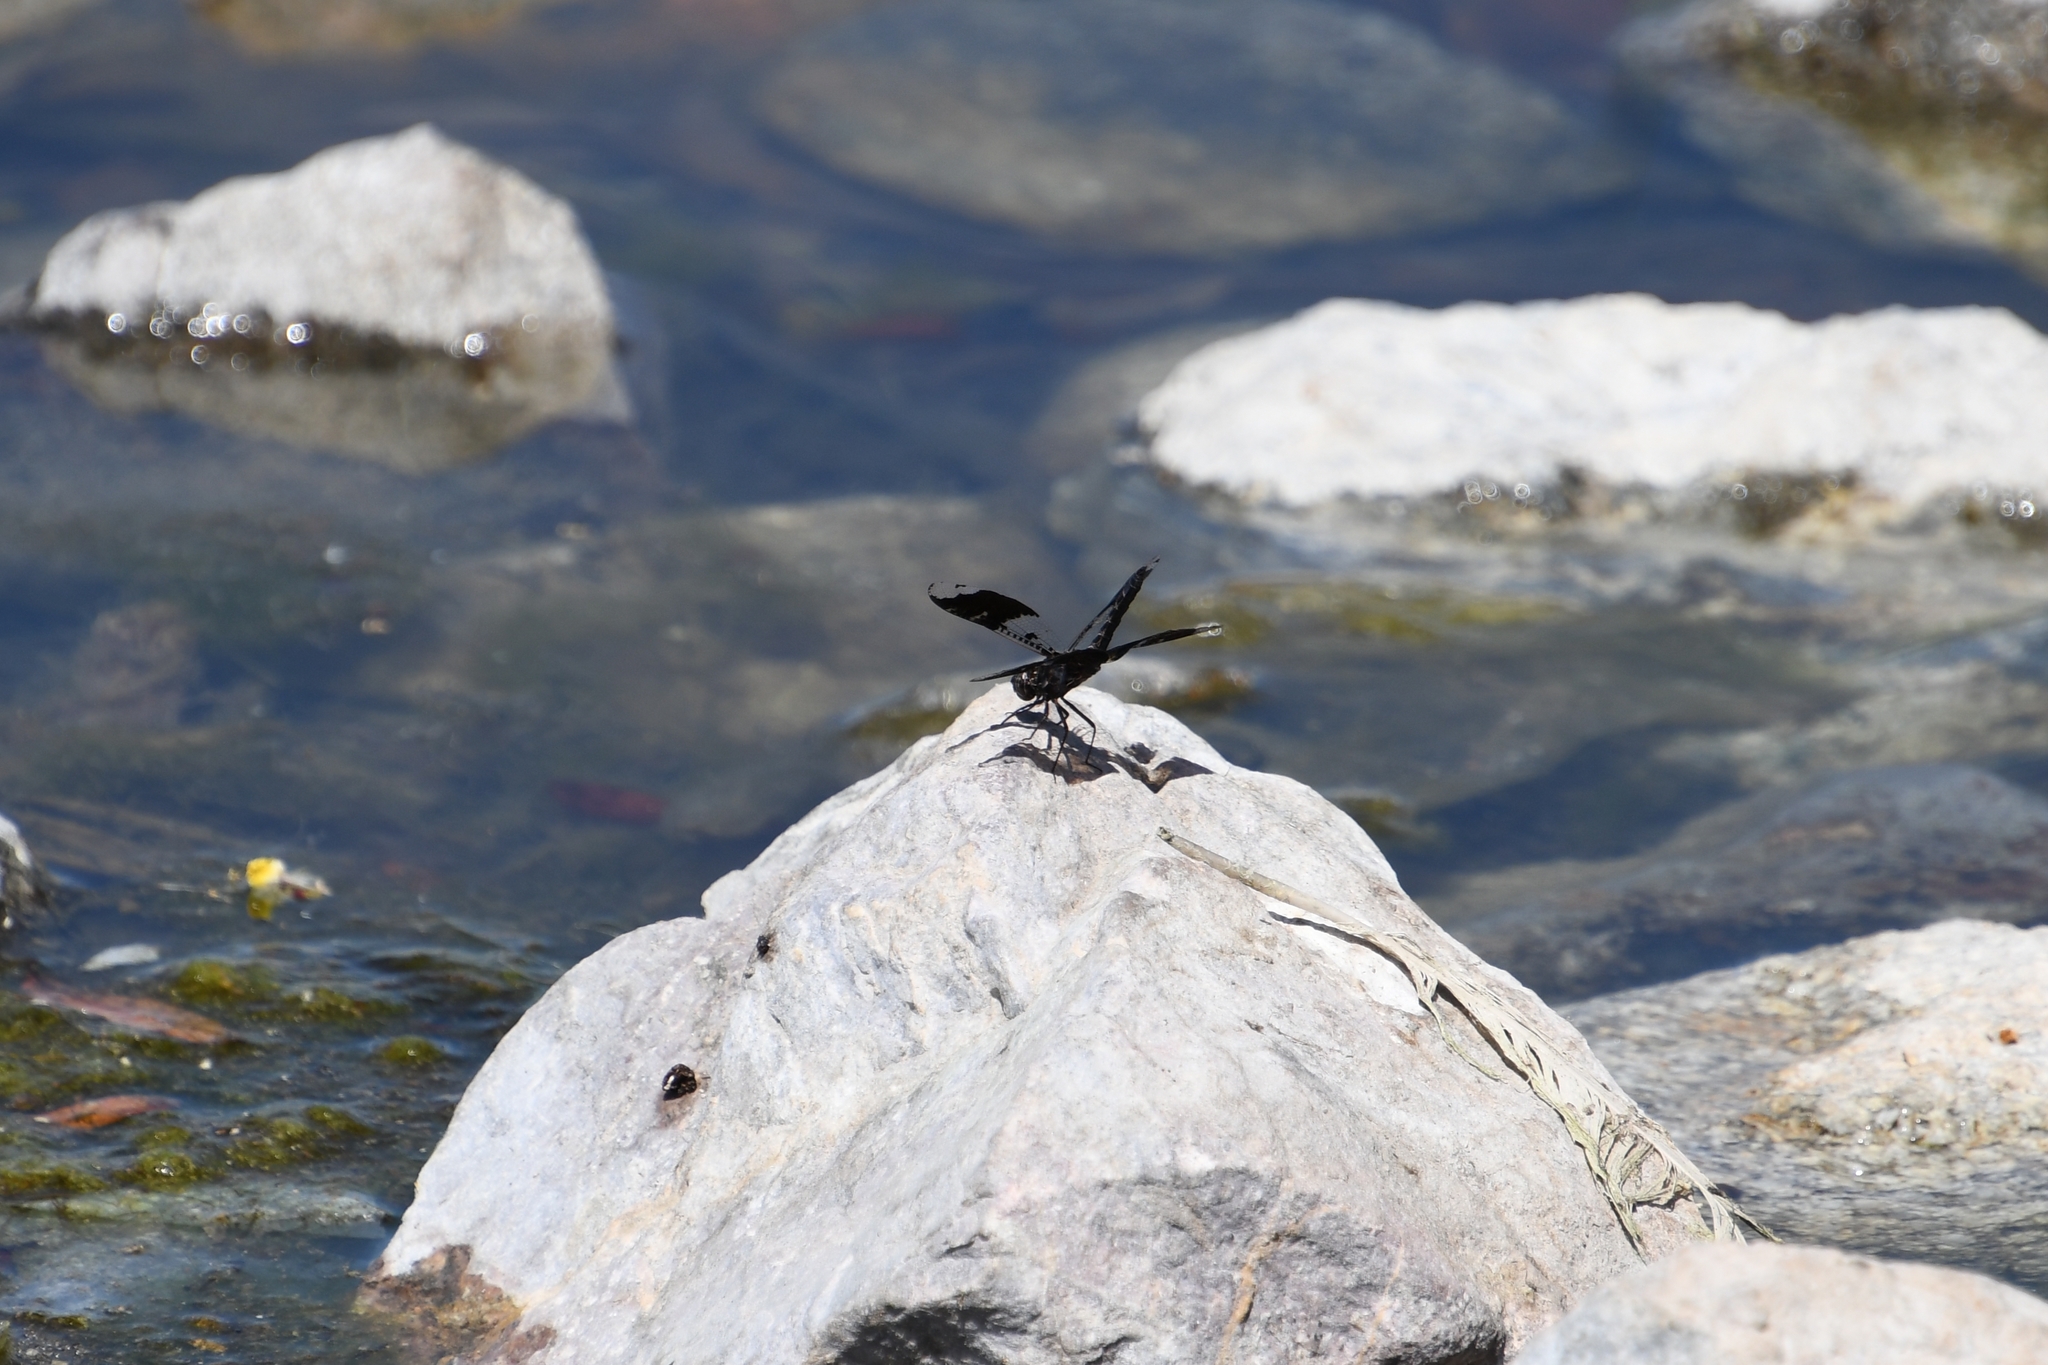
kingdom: Animalia
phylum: Arthropoda
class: Insecta
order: Odonata
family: Libellulidae
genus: Pseudoleon
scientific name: Pseudoleon superbus
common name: Filigree skimmer
